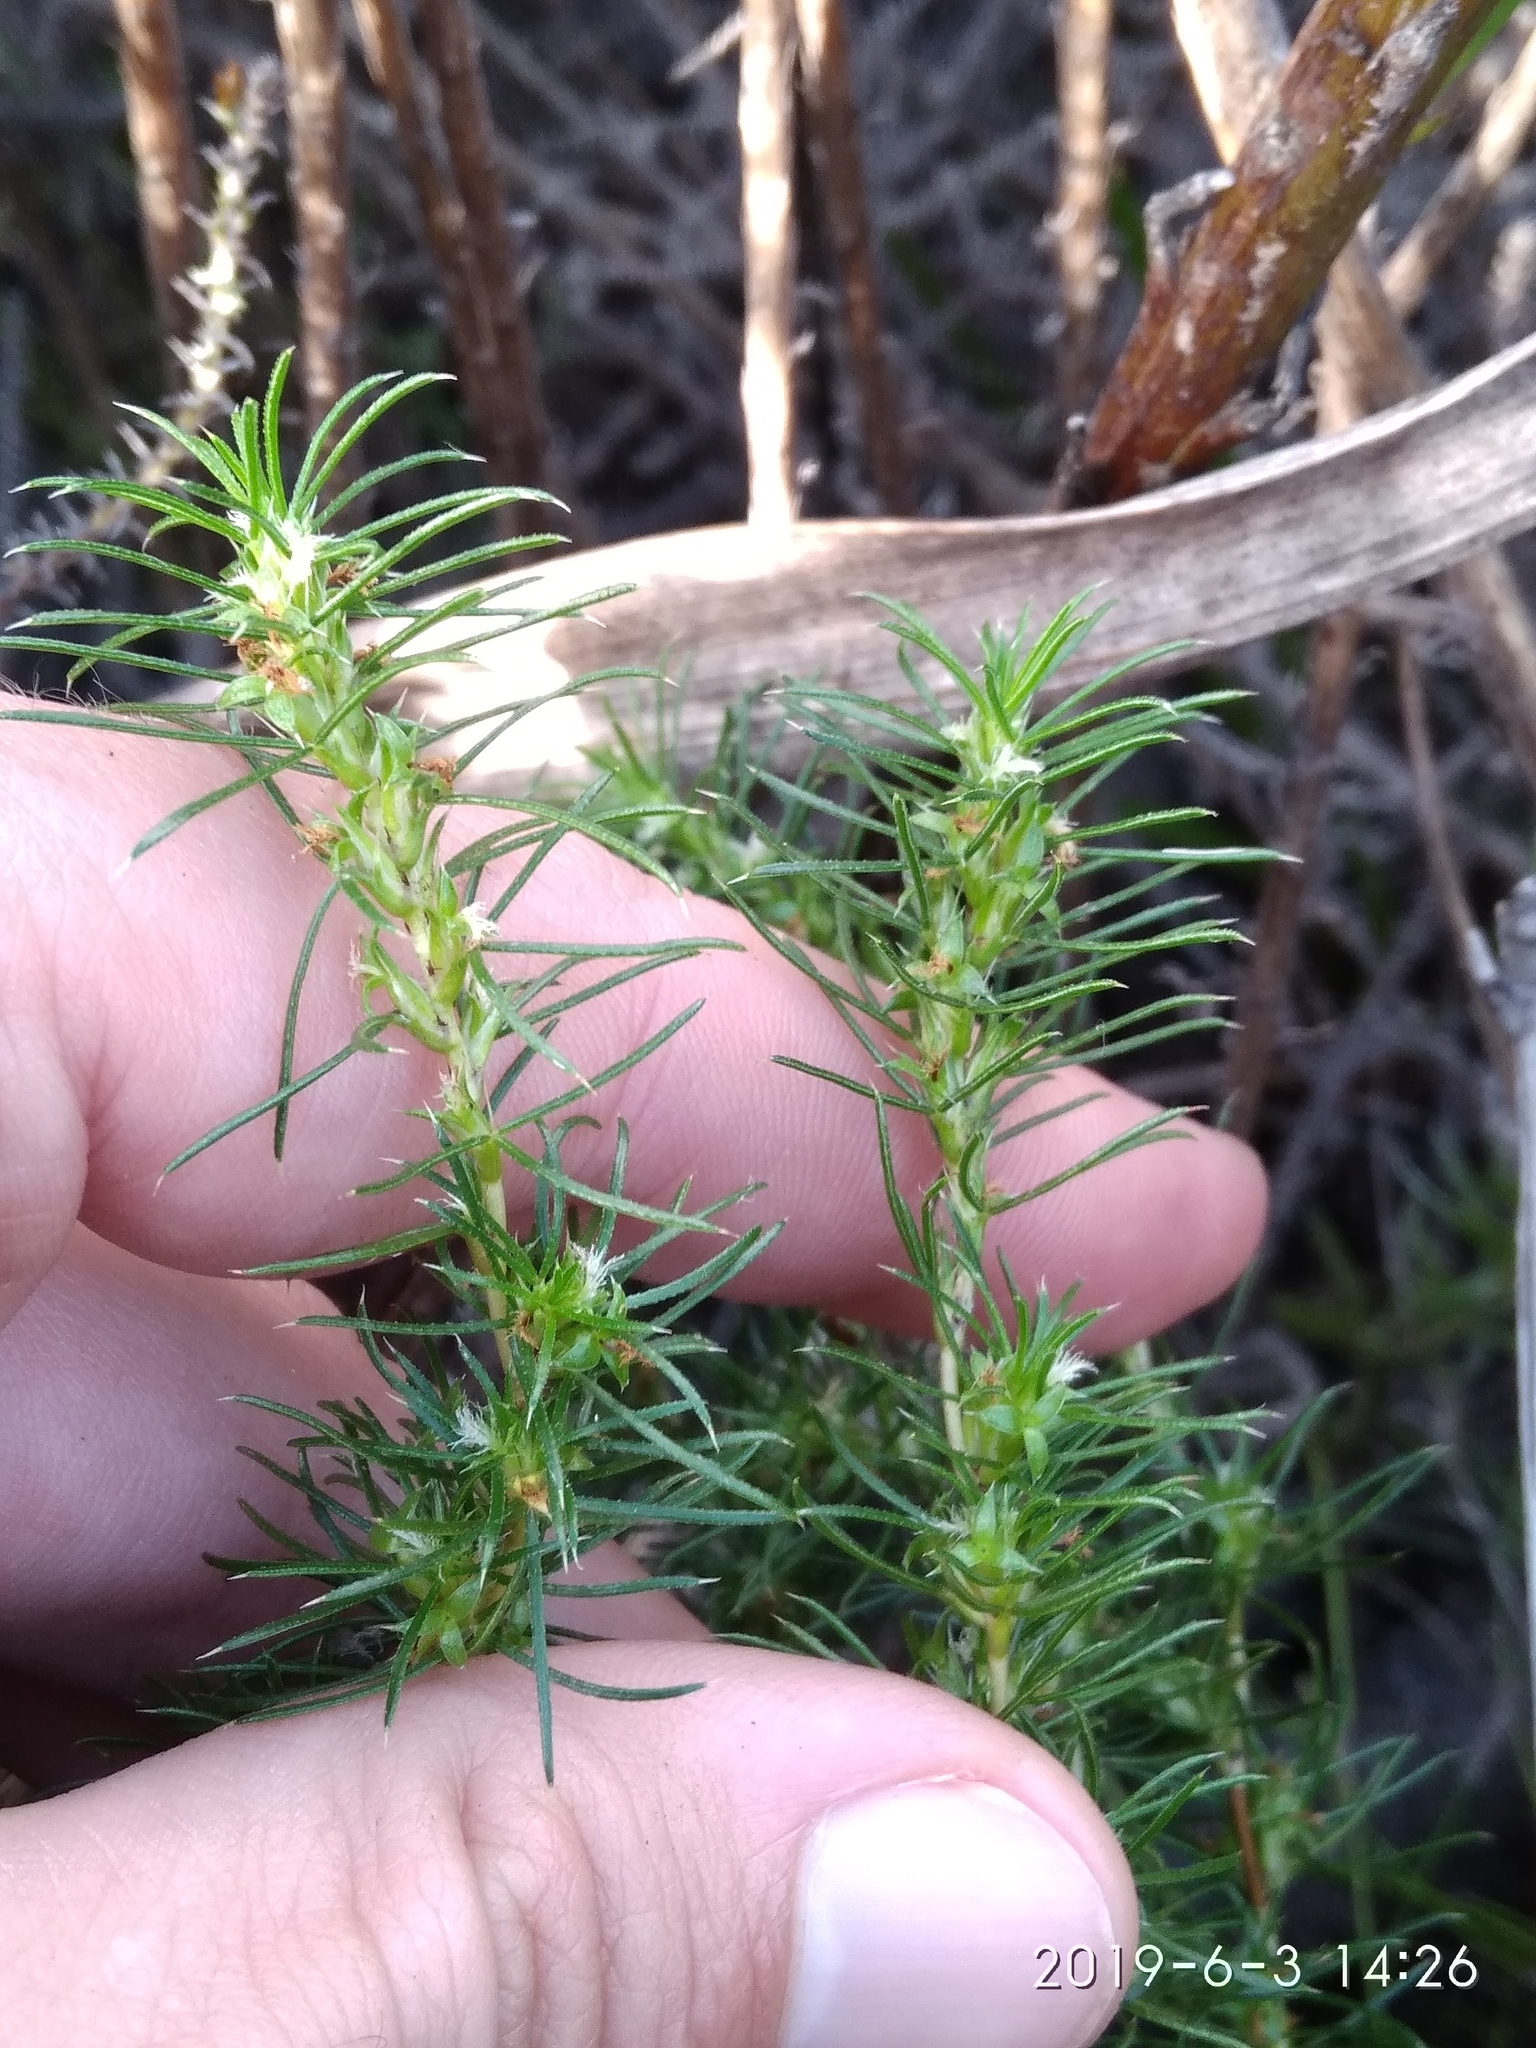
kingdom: Plantae
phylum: Tracheophyta
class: Magnoliopsida
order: Rosales
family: Rosaceae
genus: Cliffortia
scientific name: Cliffortia filifolia
